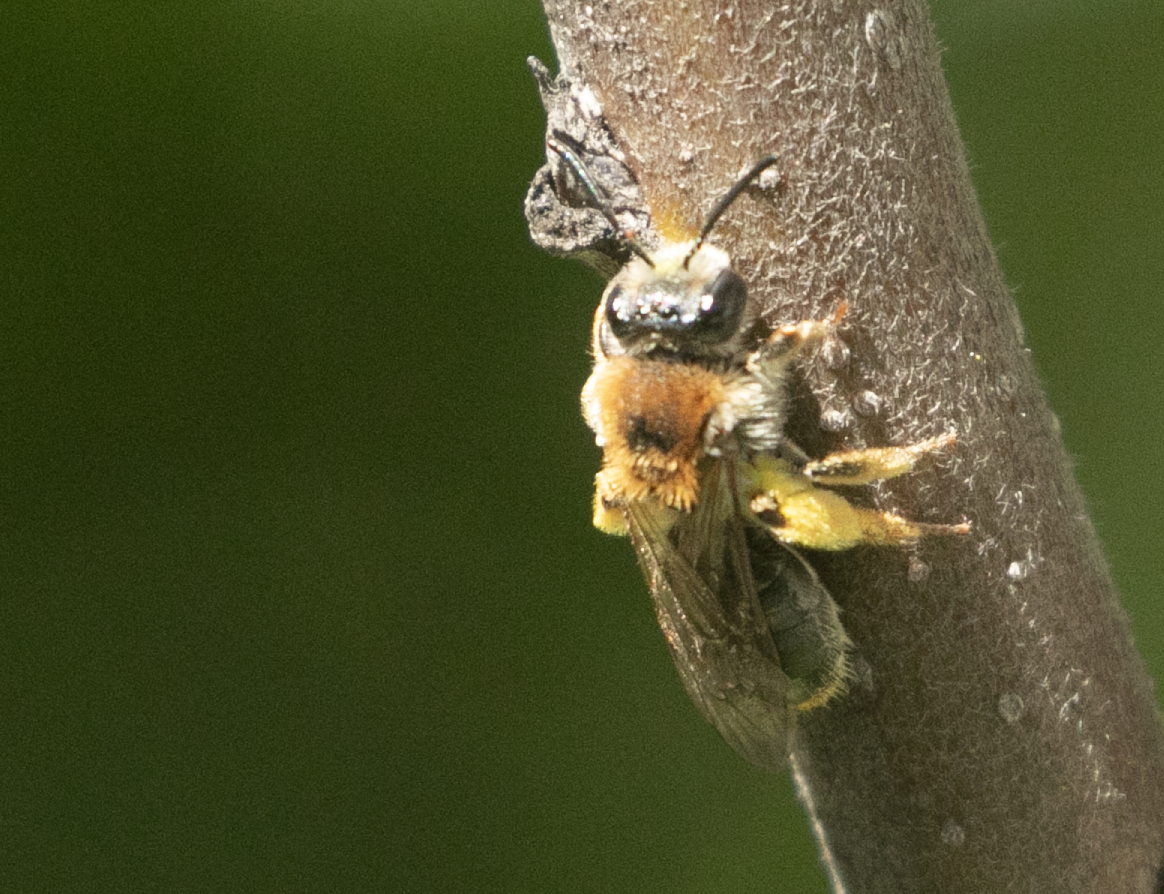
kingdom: Animalia
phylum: Arthropoda
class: Insecta
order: Hymenoptera
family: Andrenidae
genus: Andrena
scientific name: Andrena haemorrhoa
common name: Early mining bee
